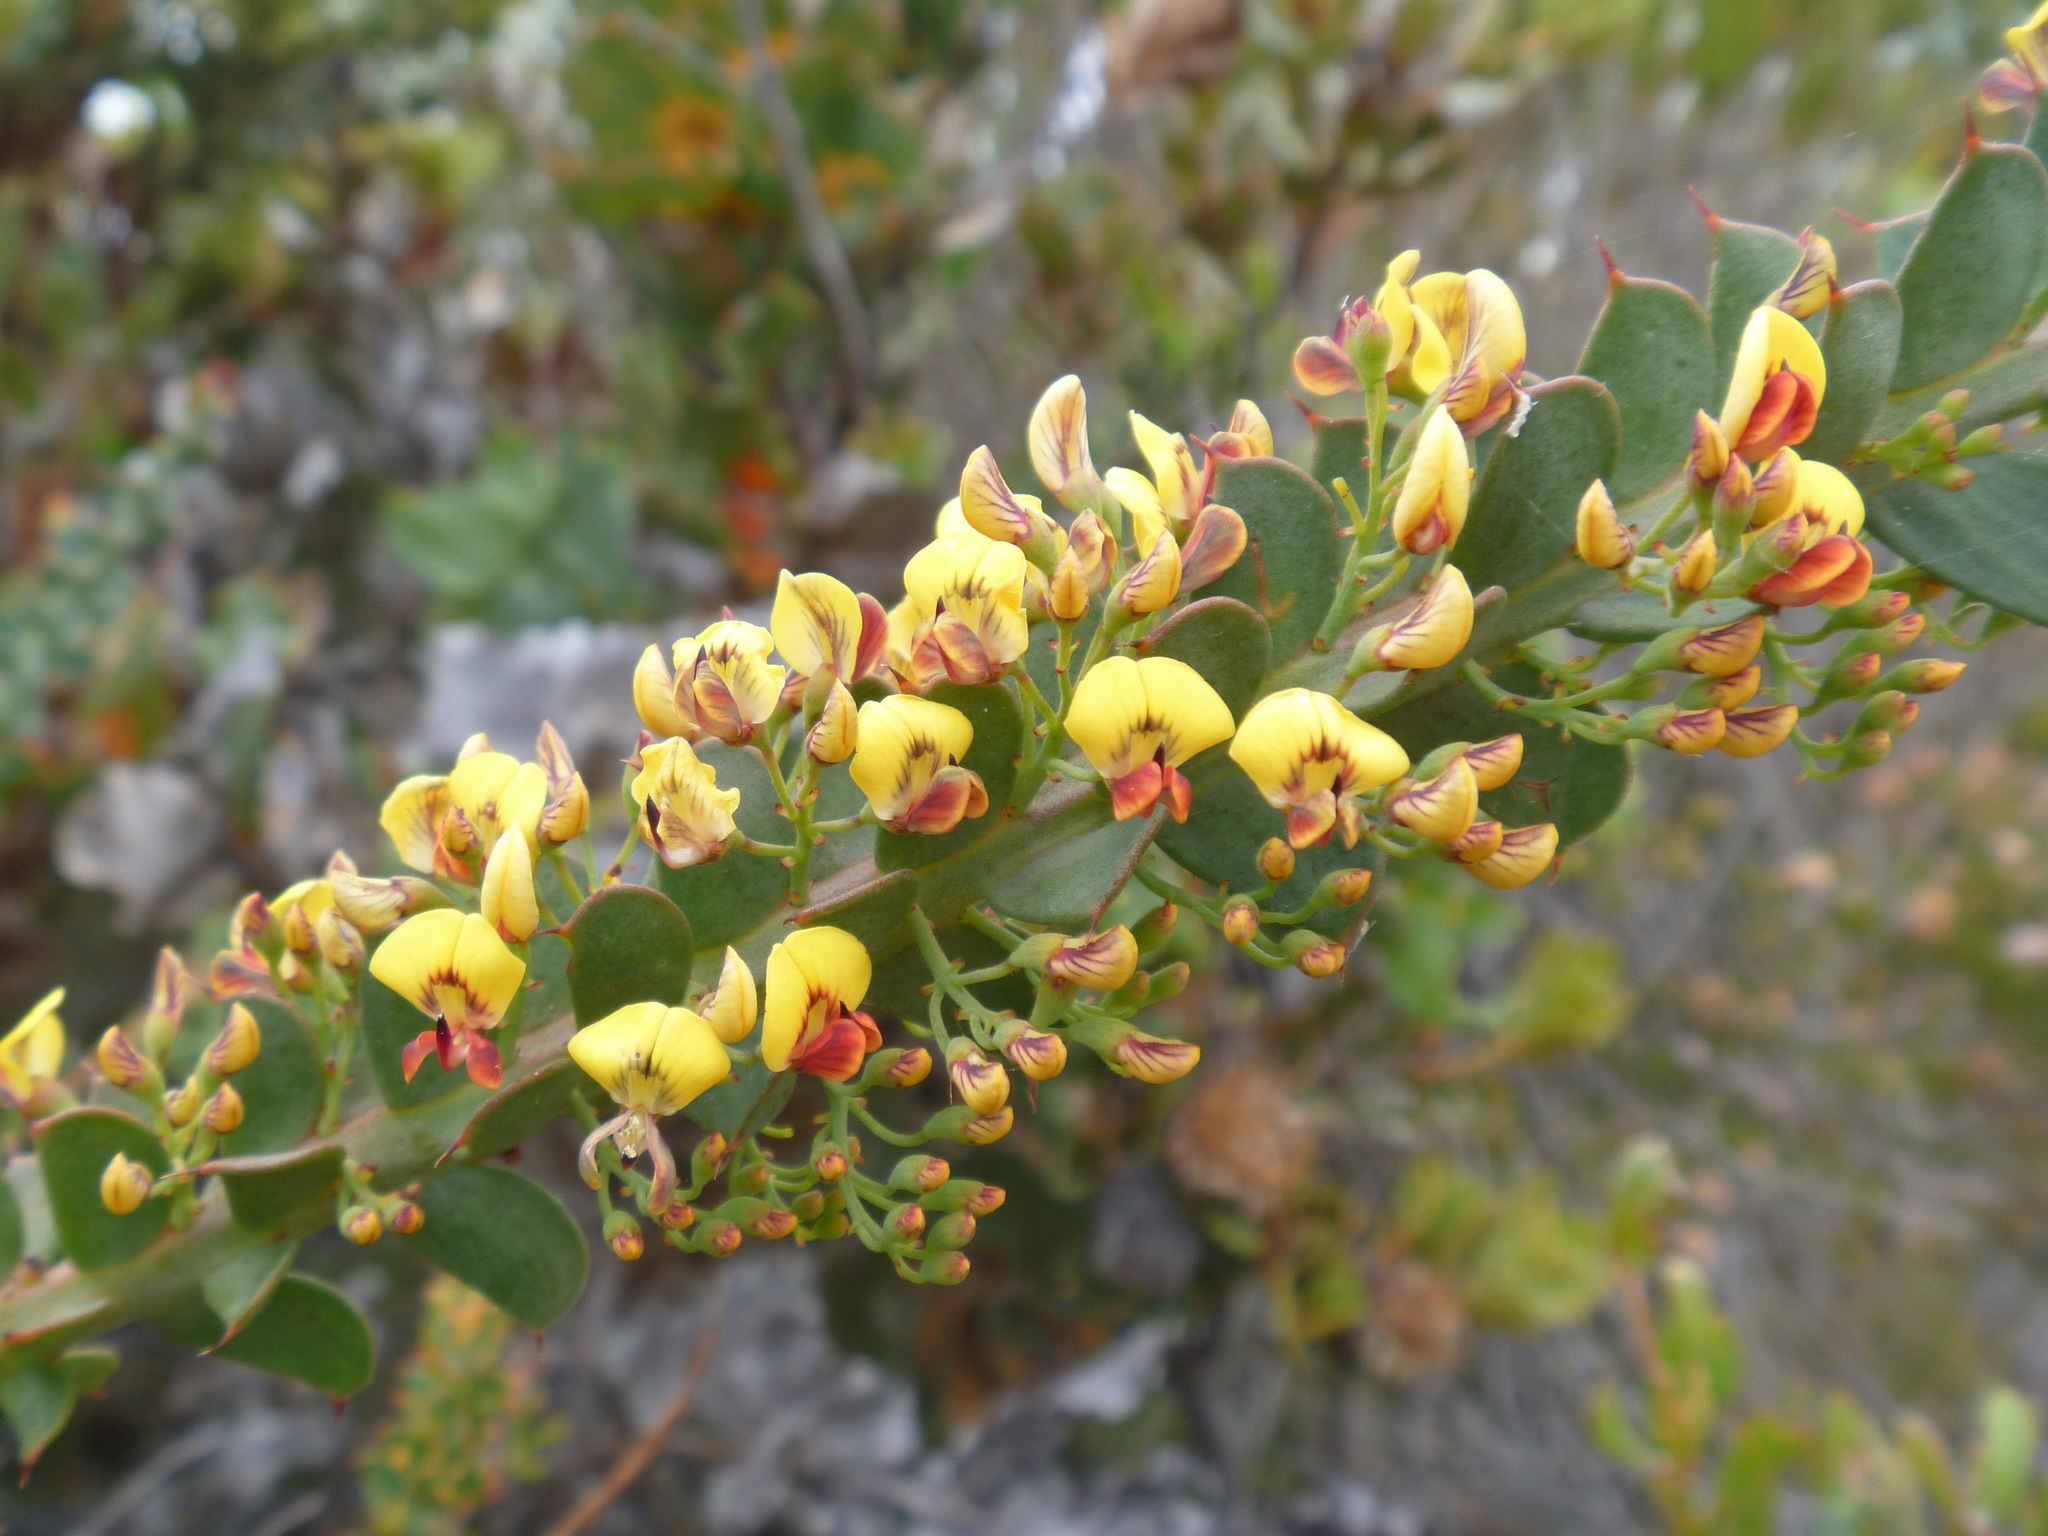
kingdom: Plantae
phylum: Tracheophyta
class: Magnoliopsida
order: Fabales
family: Fabaceae
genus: Daviesia
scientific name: Daviesia striata
